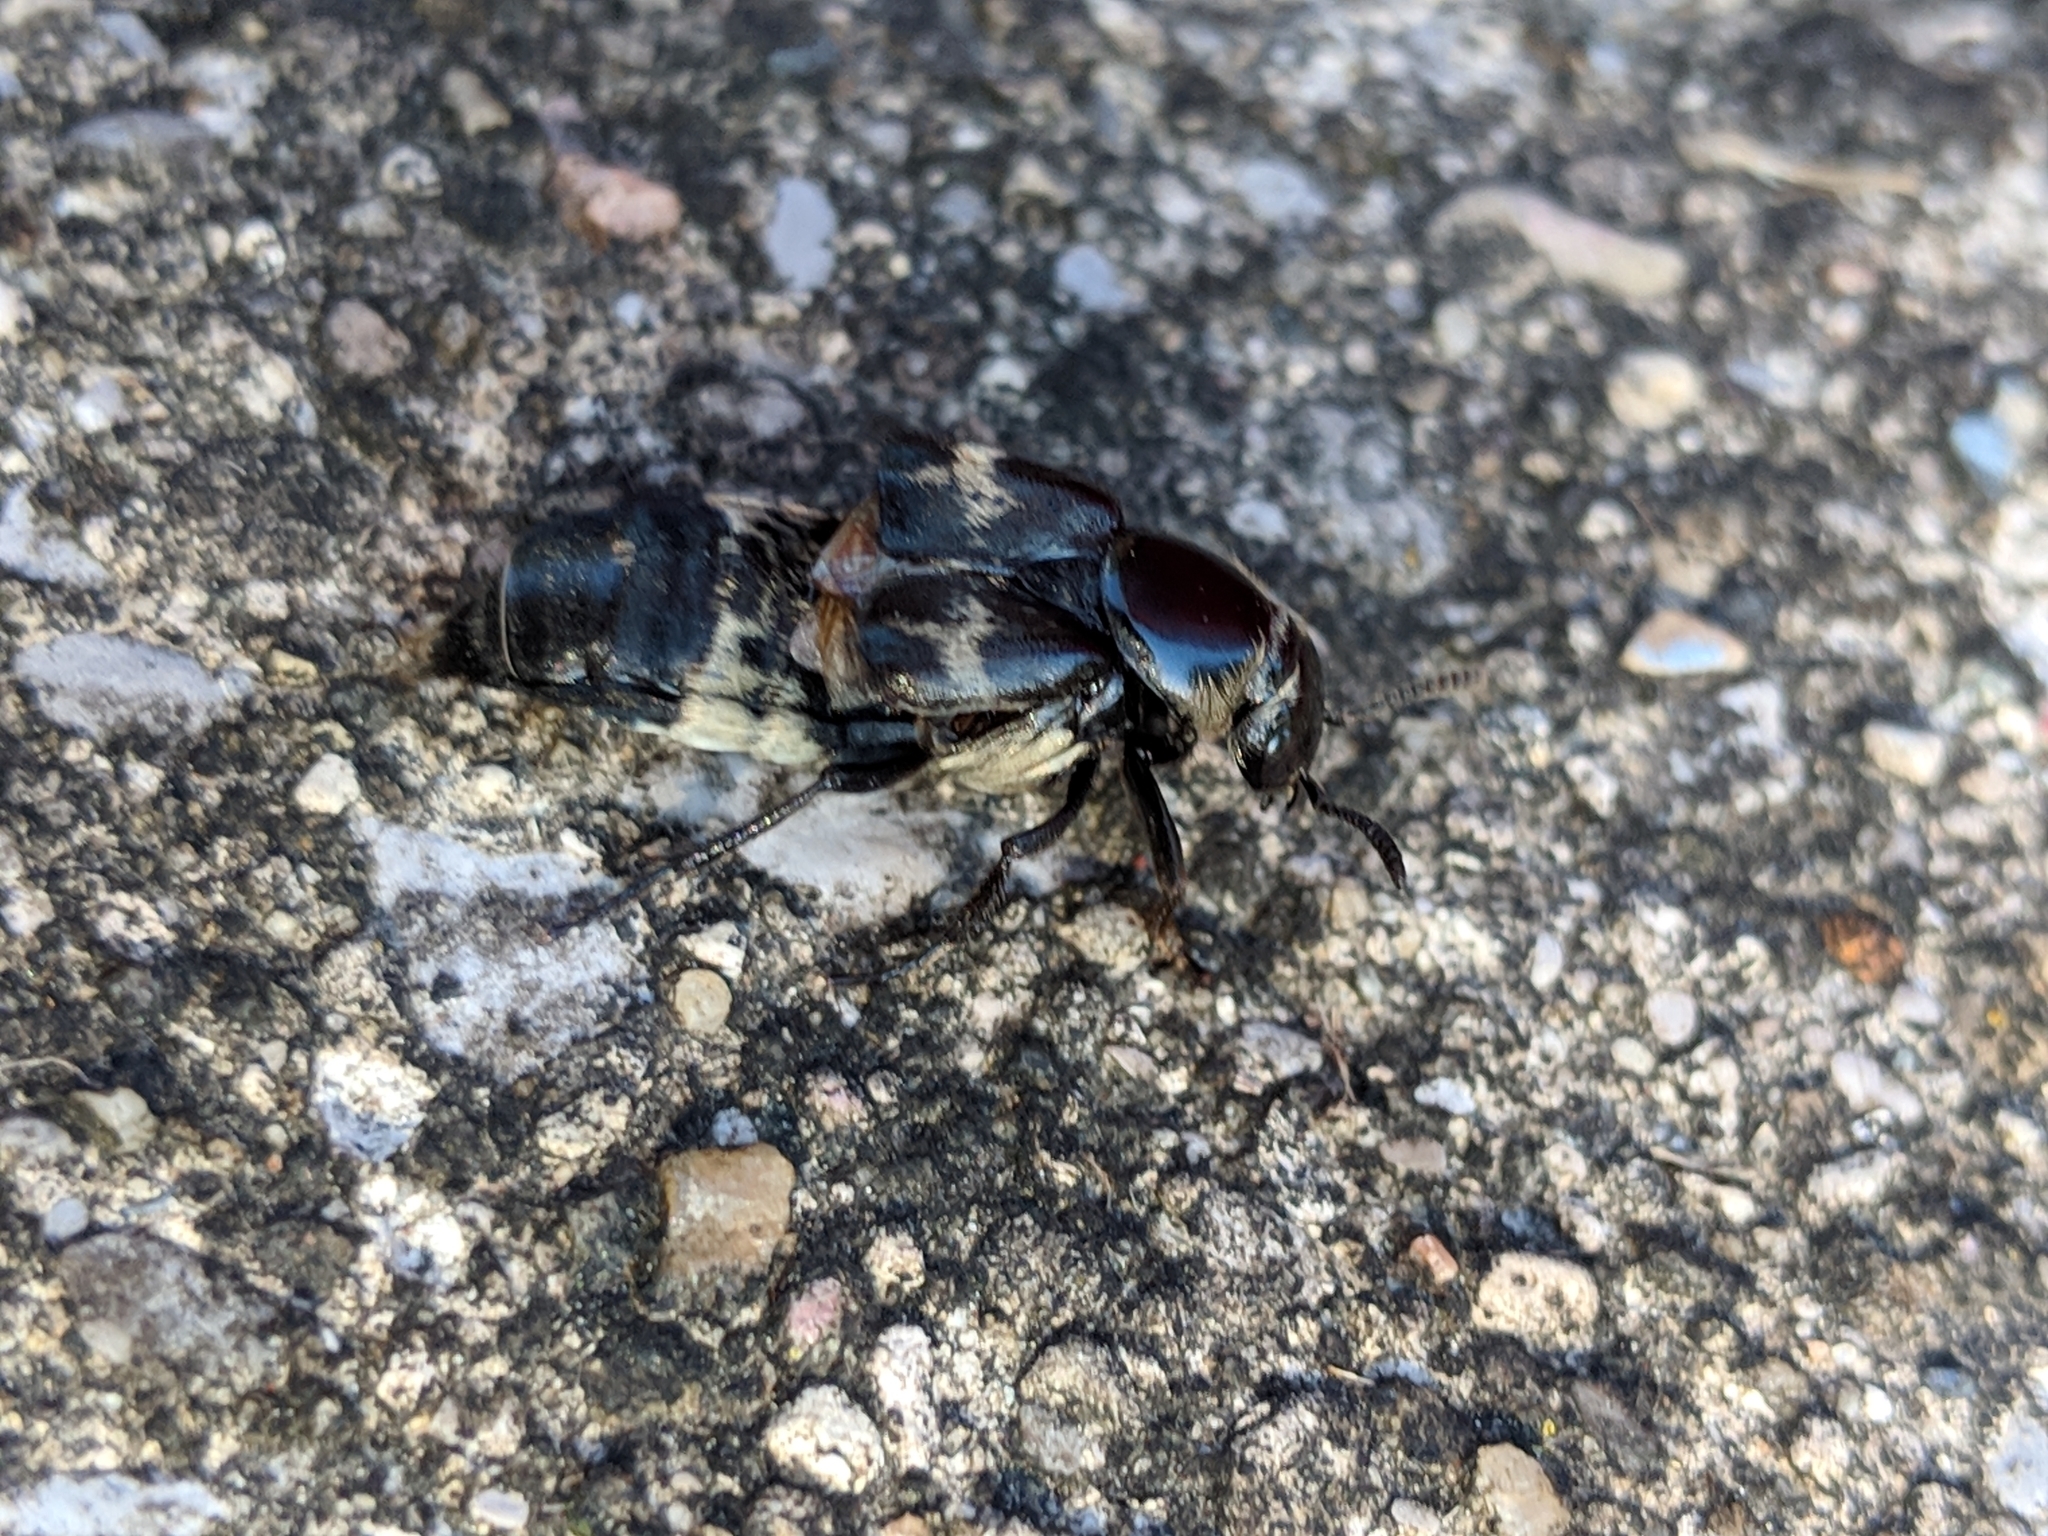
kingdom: Animalia
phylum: Arthropoda
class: Insecta
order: Coleoptera
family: Staphylinidae
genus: Creophilus
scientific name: Creophilus maxillosus
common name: Hairy rove beetle
